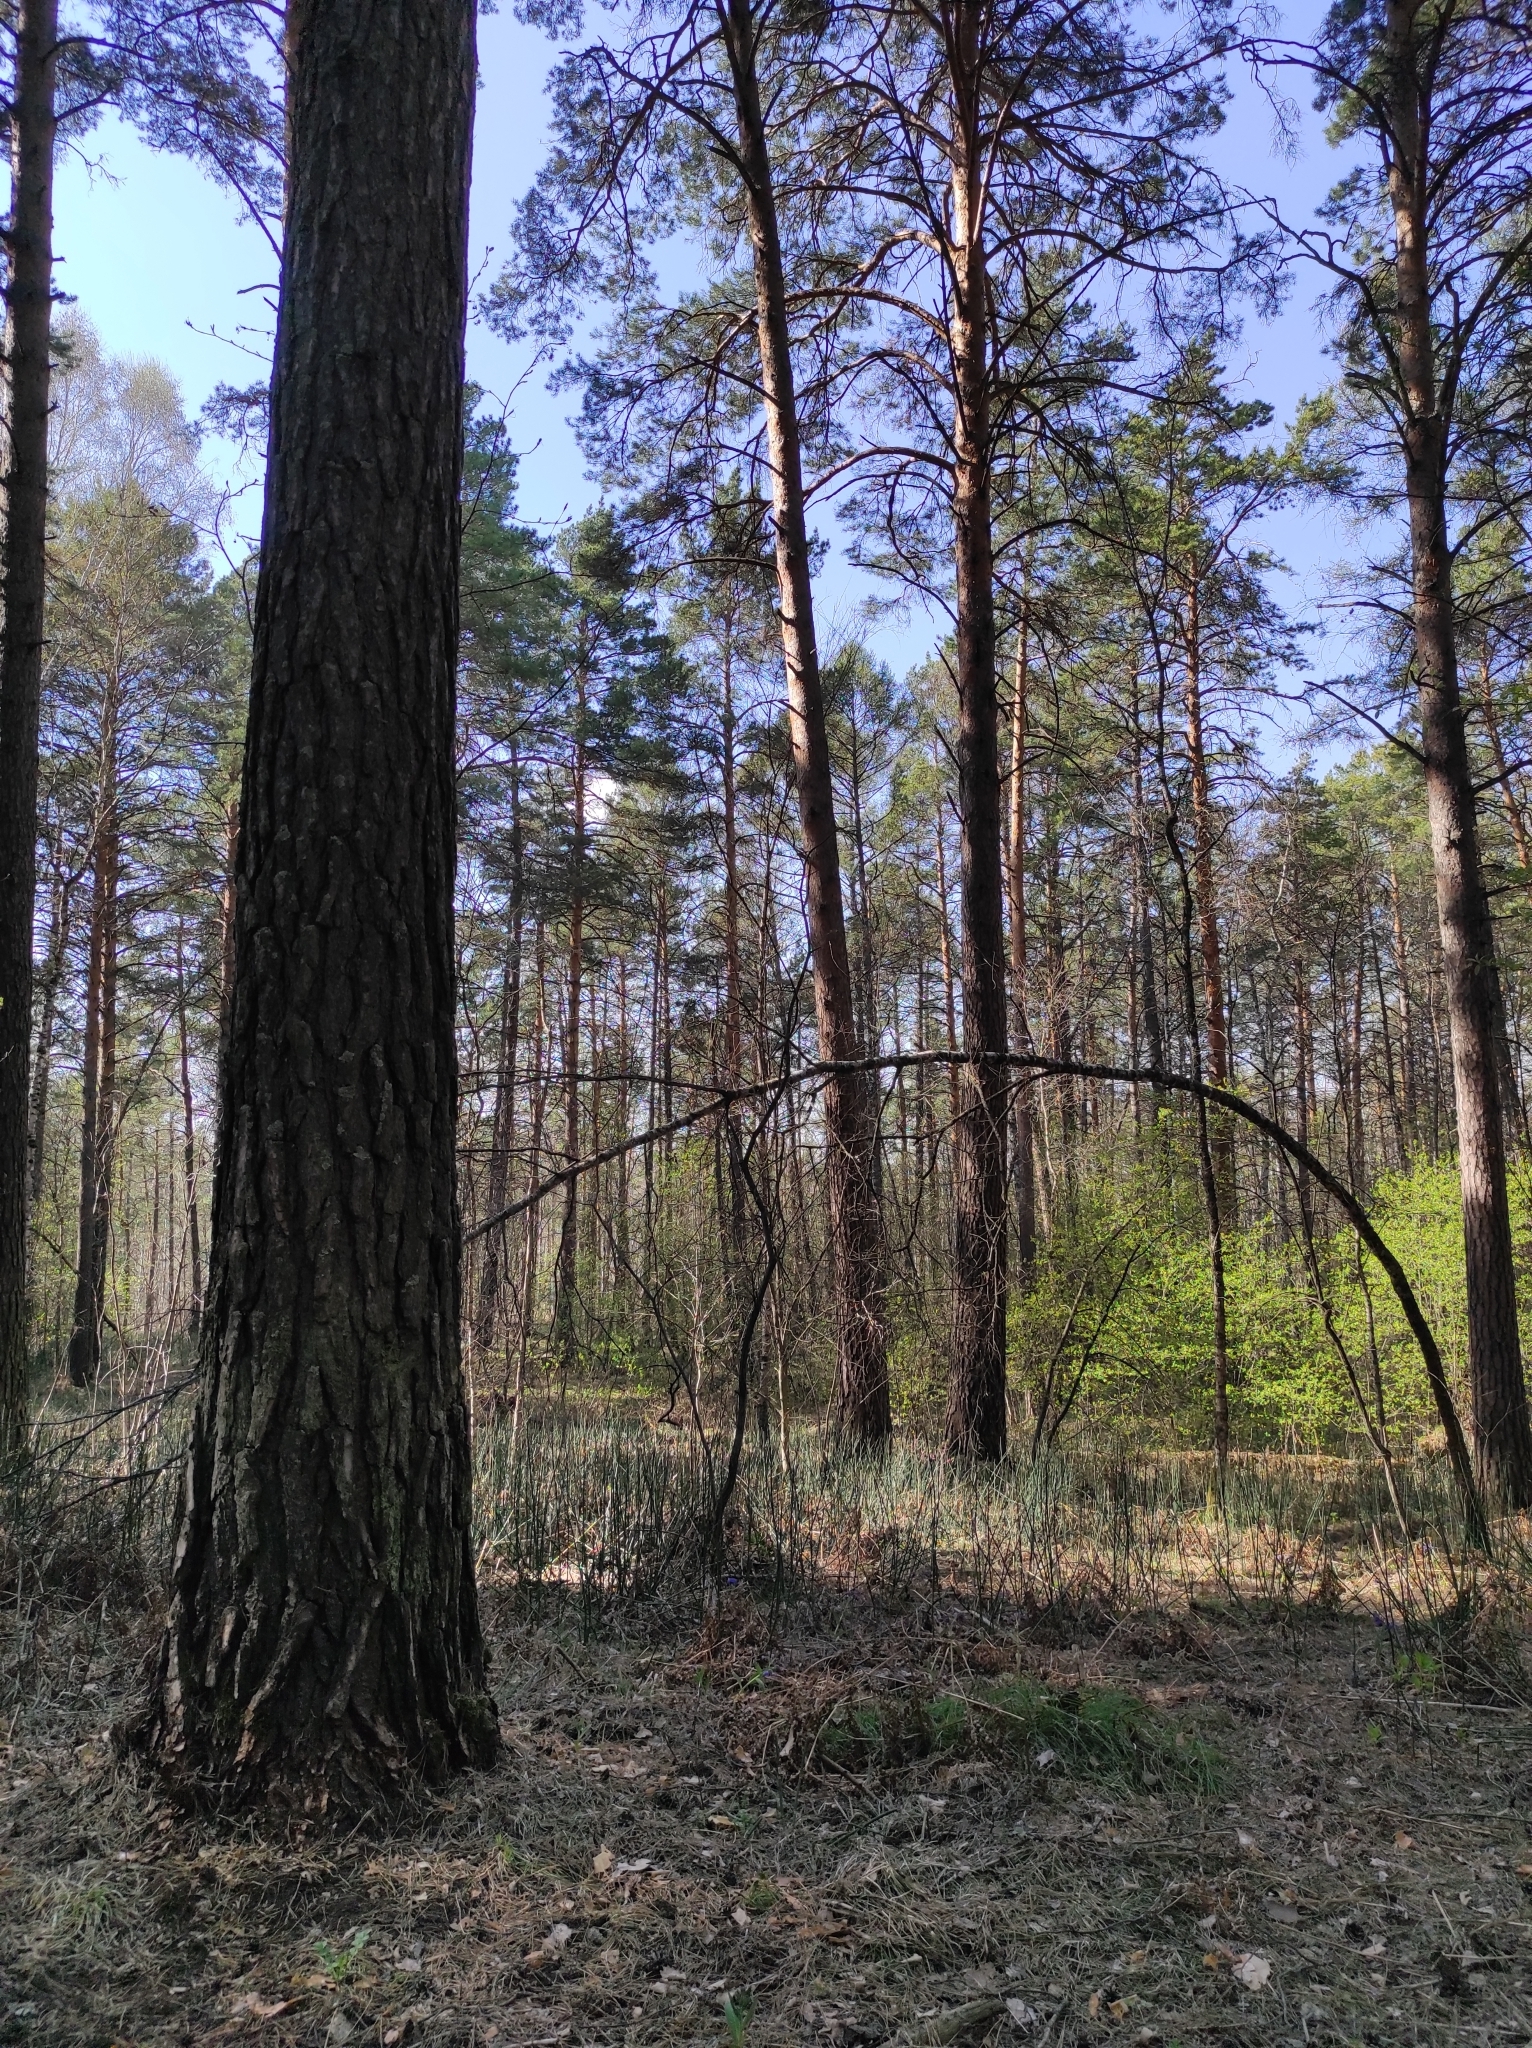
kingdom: Plantae
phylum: Tracheophyta
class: Pinopsida
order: Pinales
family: Pinaceae
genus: Pinus
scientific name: Pinus sylvestris
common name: Scots pine
